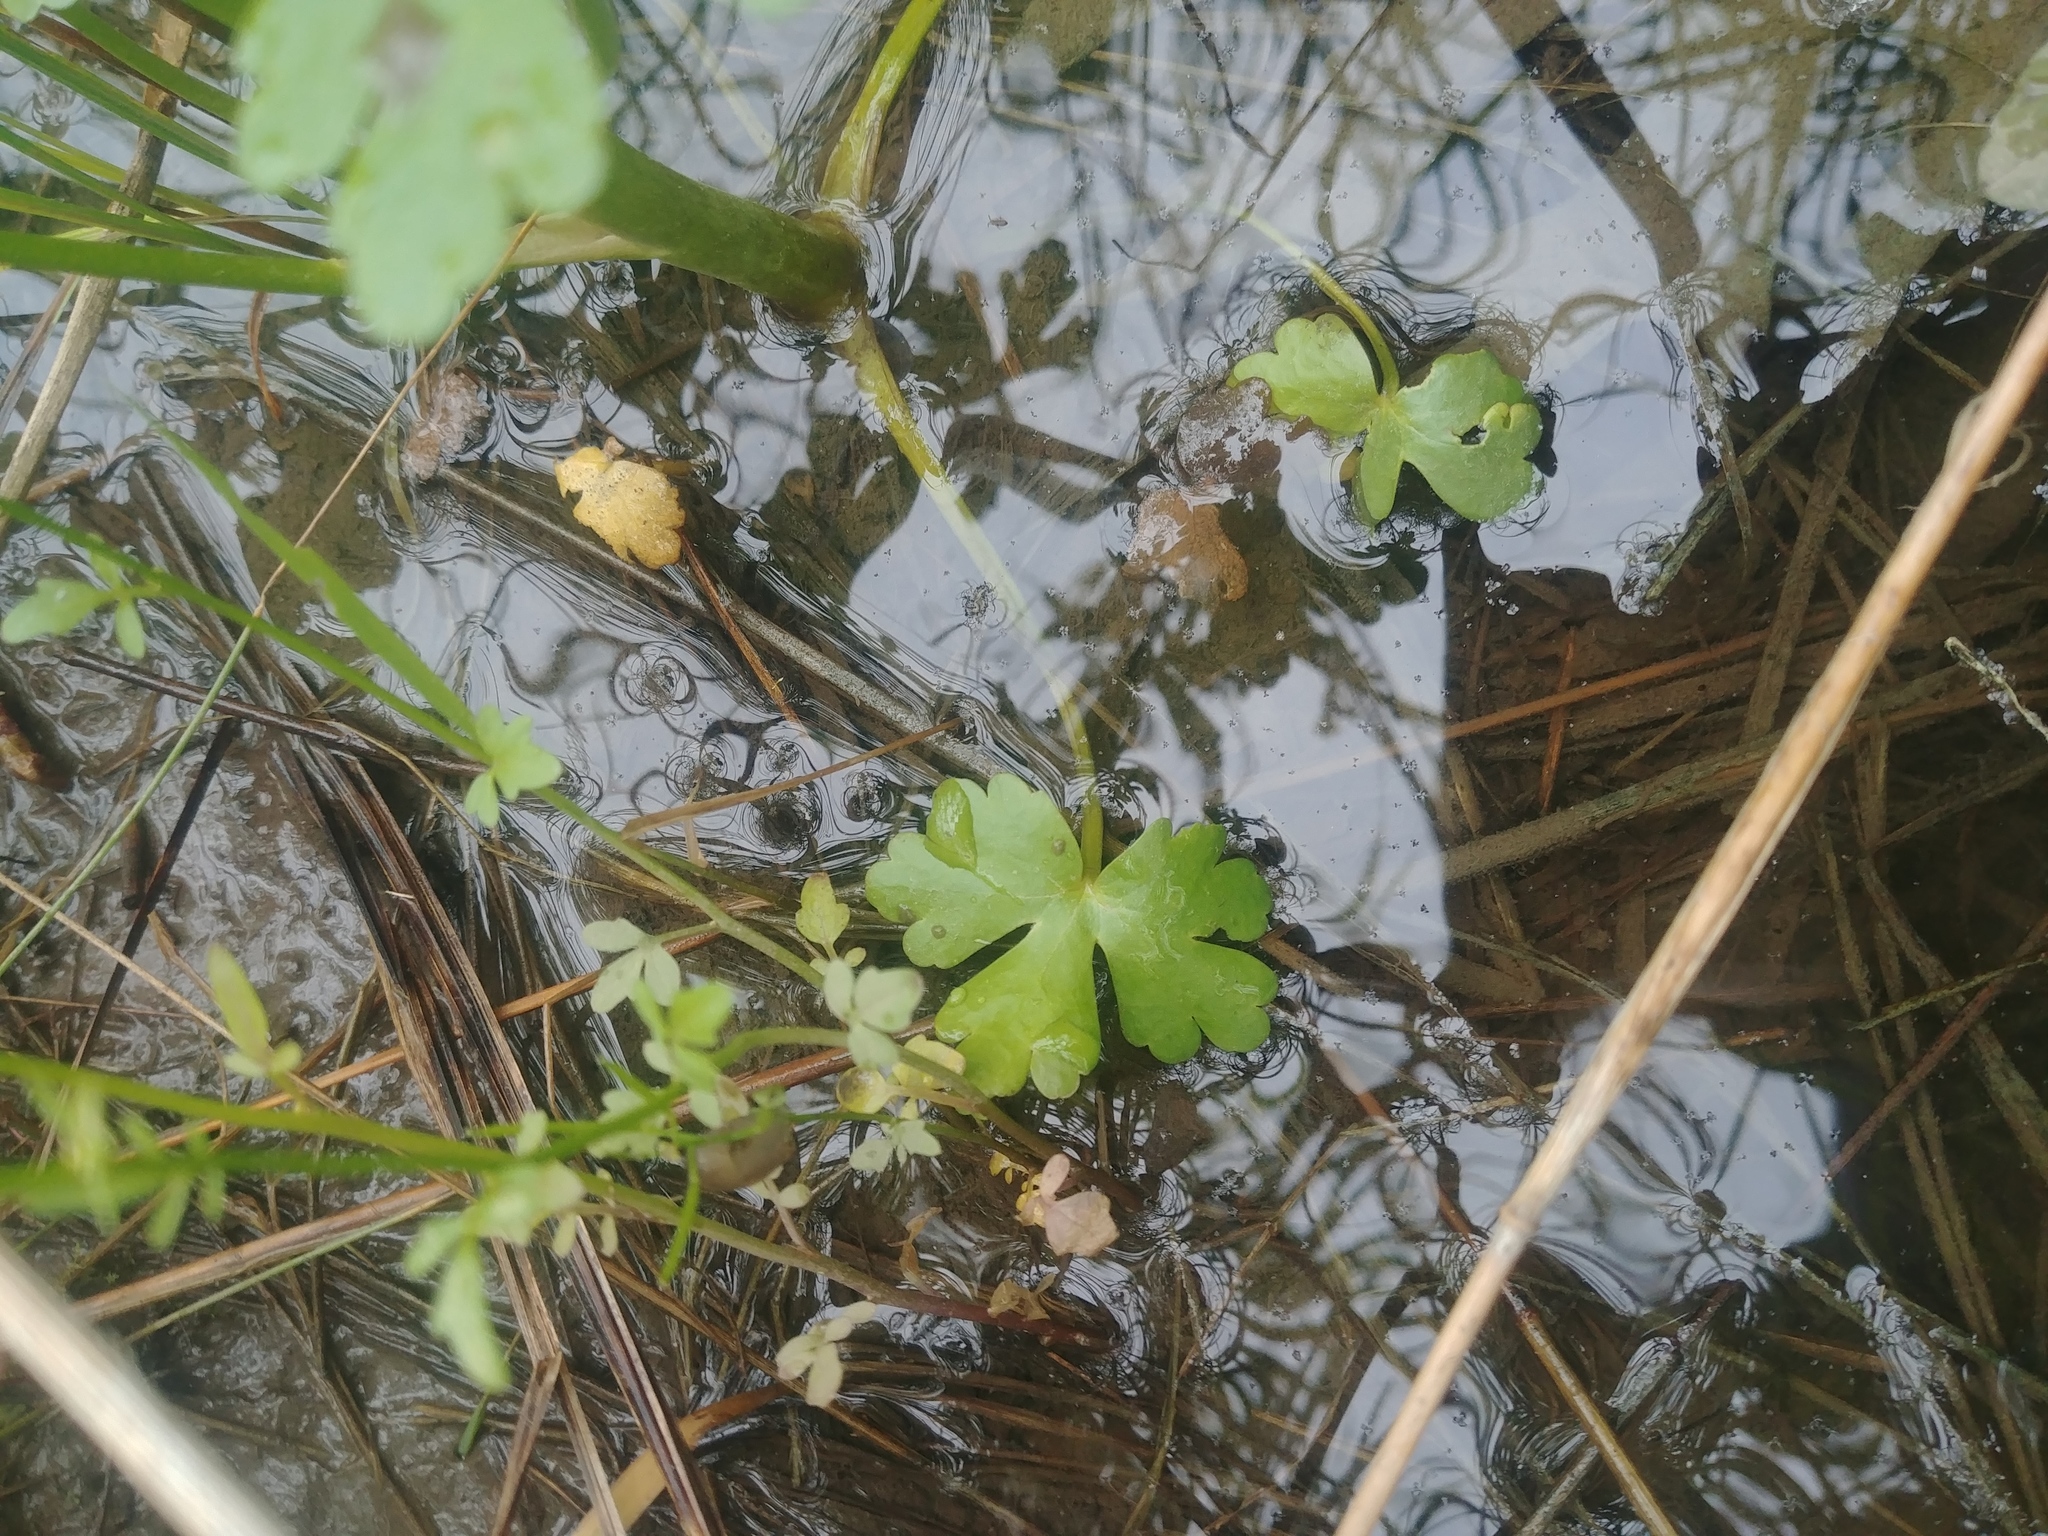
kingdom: Plantae
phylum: Tracheophyta
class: Magnoliopsida
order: Ranunculales
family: Ranunculaceae
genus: Ranunculus
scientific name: Ranunculus sceleratus
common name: Celery-leaved buttercup
